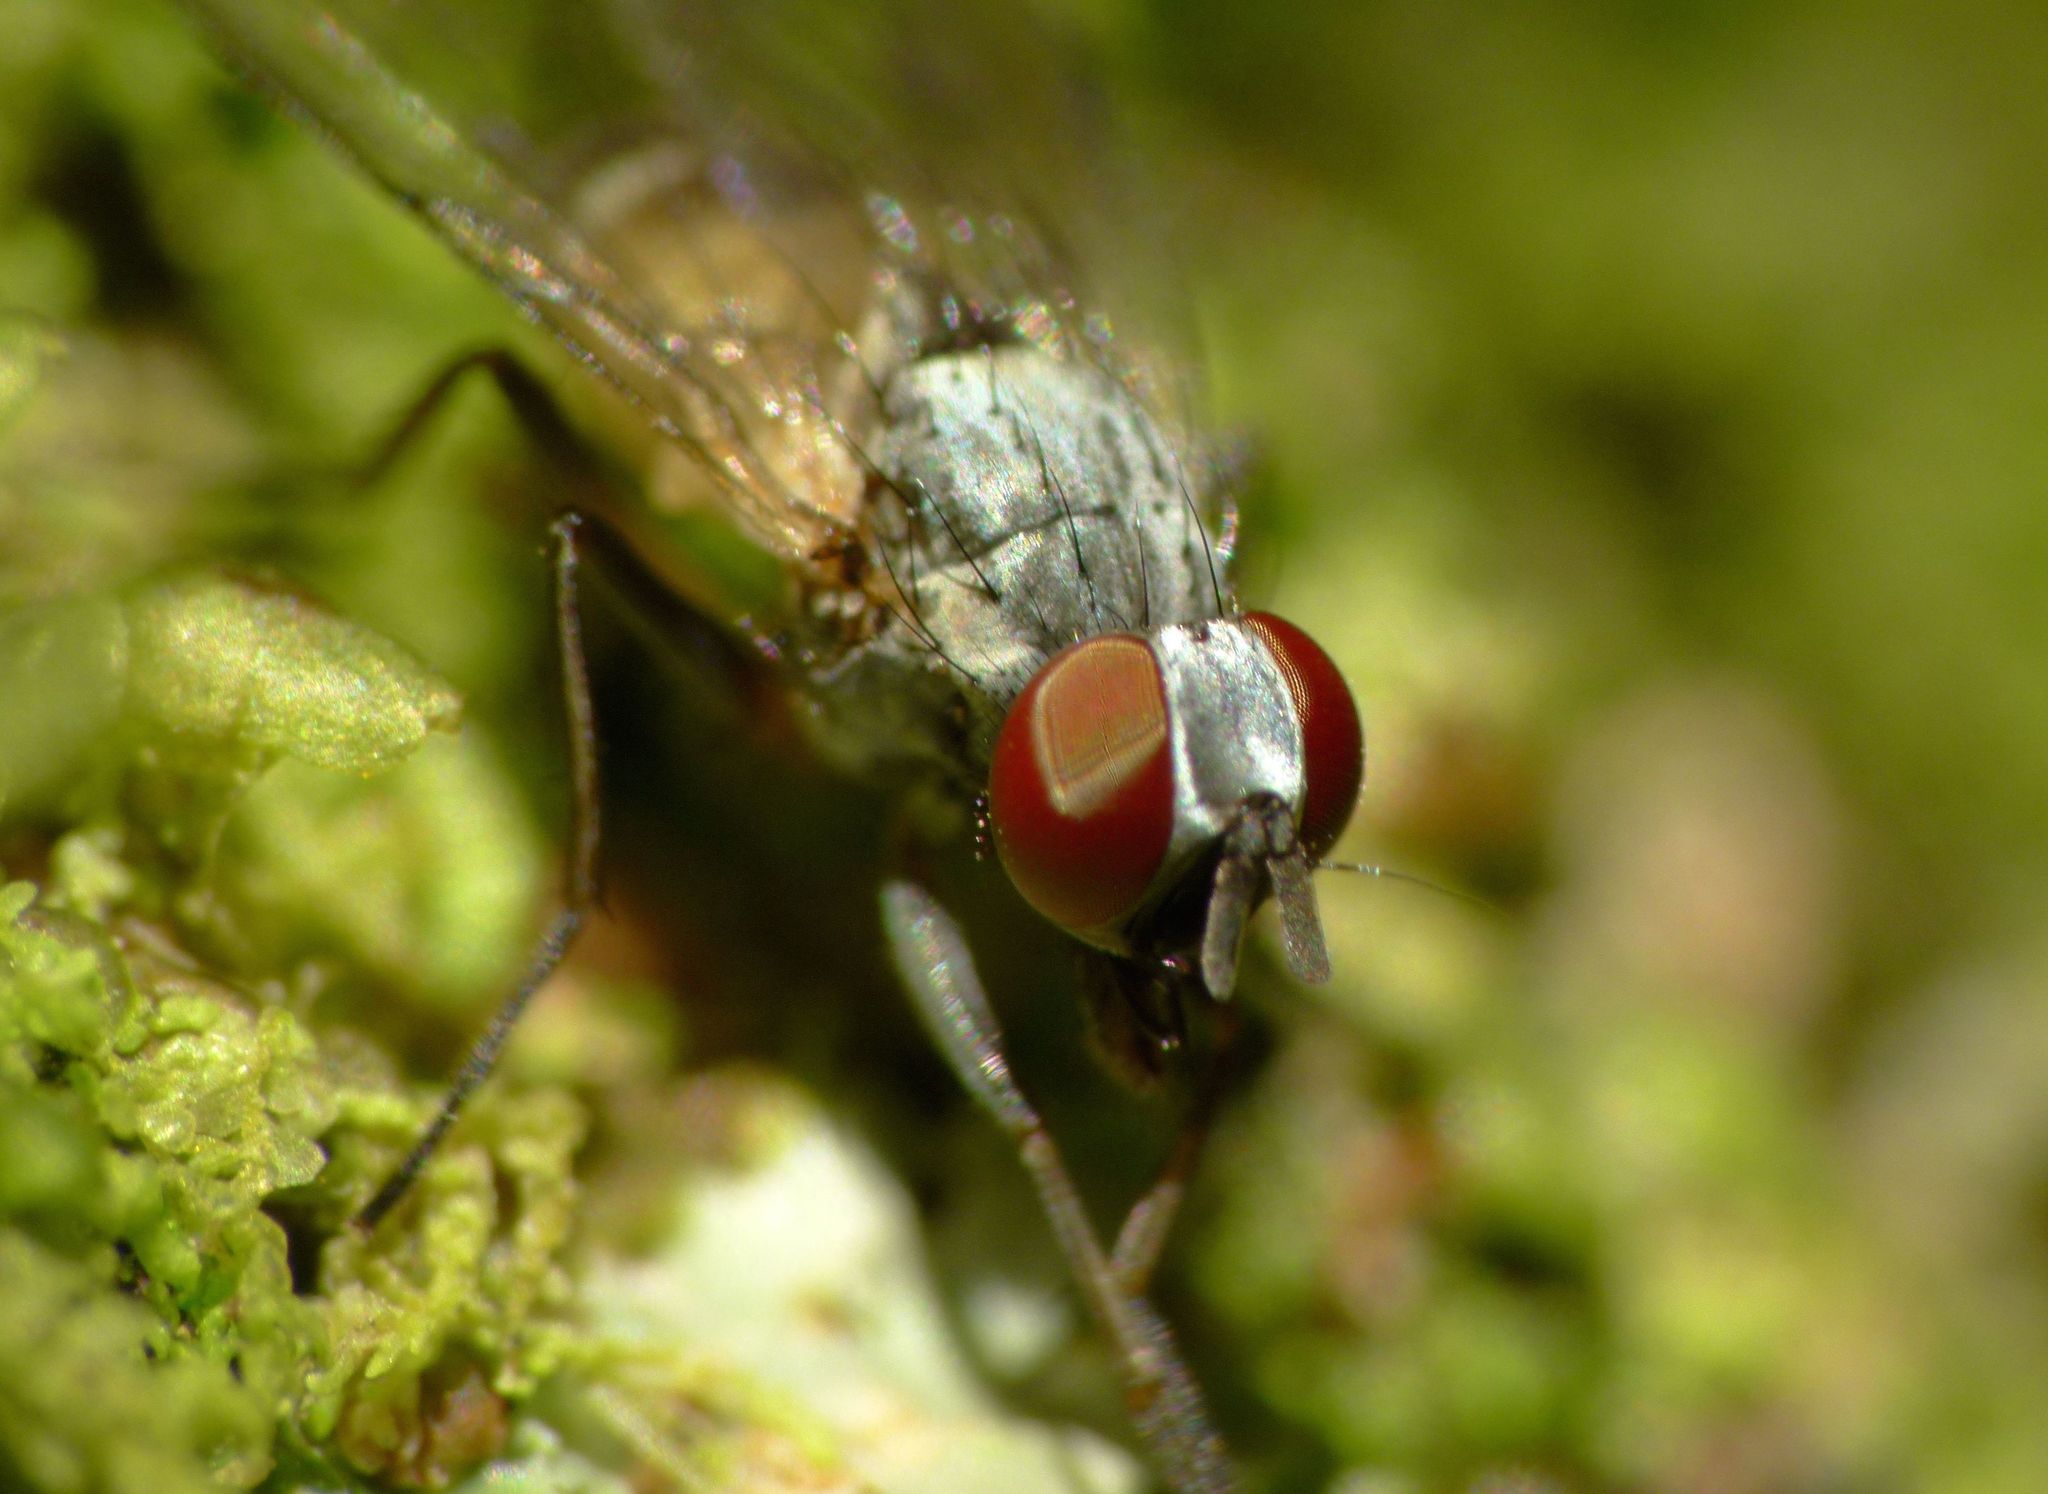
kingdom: Animalia
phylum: Arthropoda
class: Insecta
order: Diptera
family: Muscidae
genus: Spilogona
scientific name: Spilogona flaviventris
